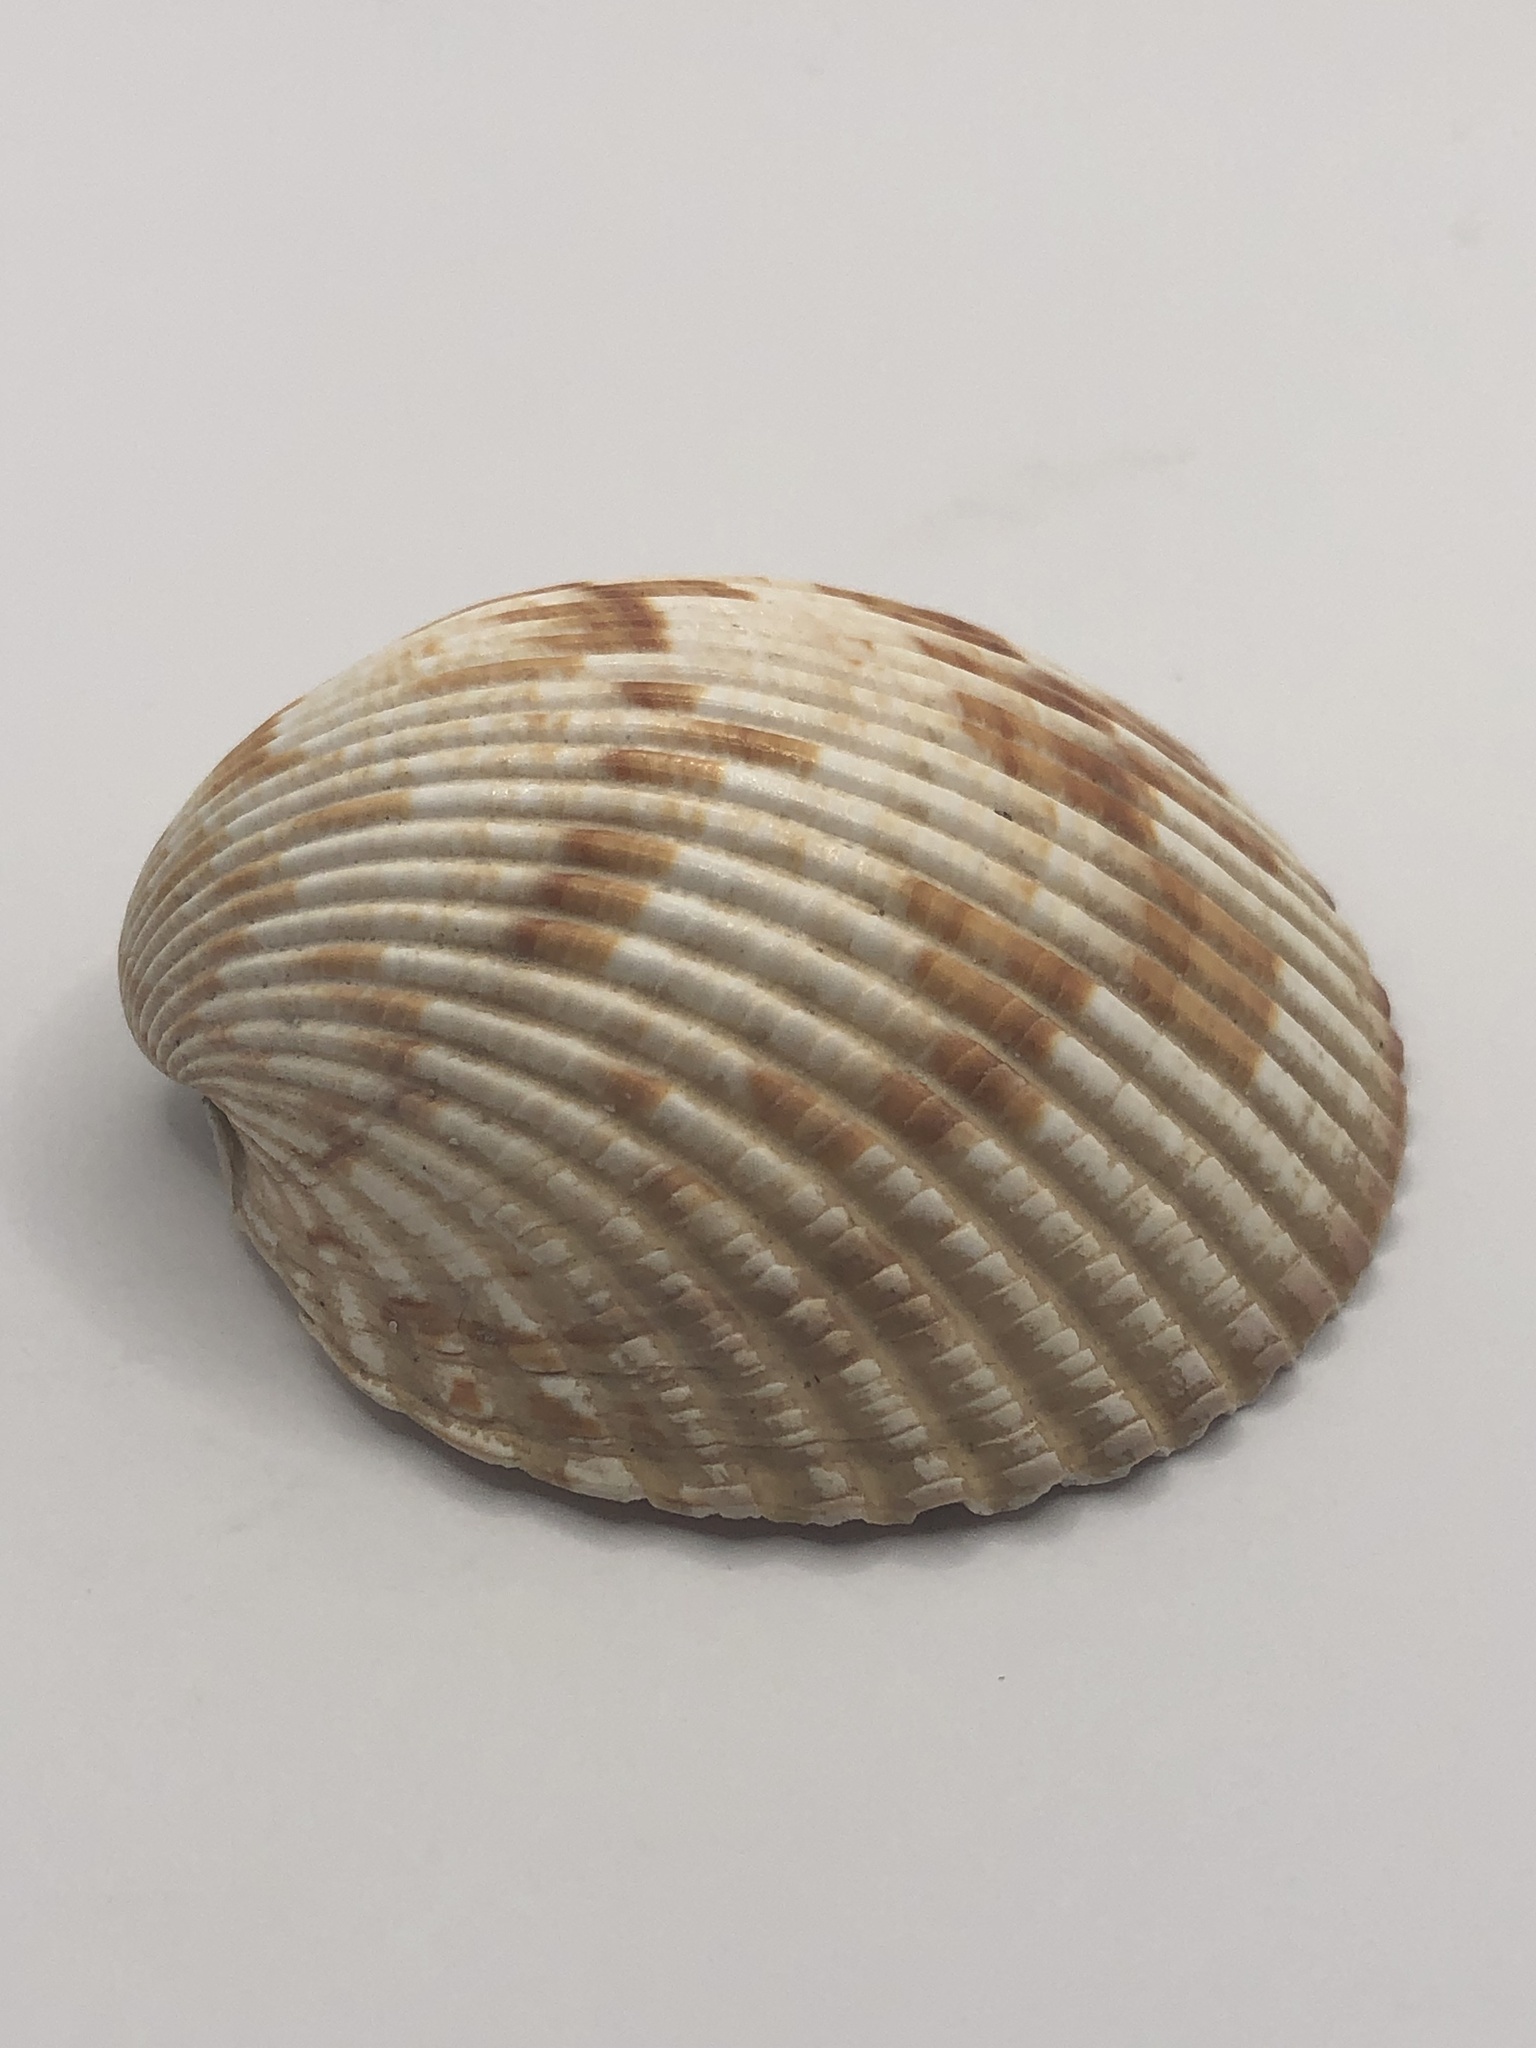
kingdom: Animalia
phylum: Mollusca
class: Bivalvia
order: Cardiida
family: Cardiidae
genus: Dinocardium
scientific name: Dinocardium robustum
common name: Atlantic giant cockle
